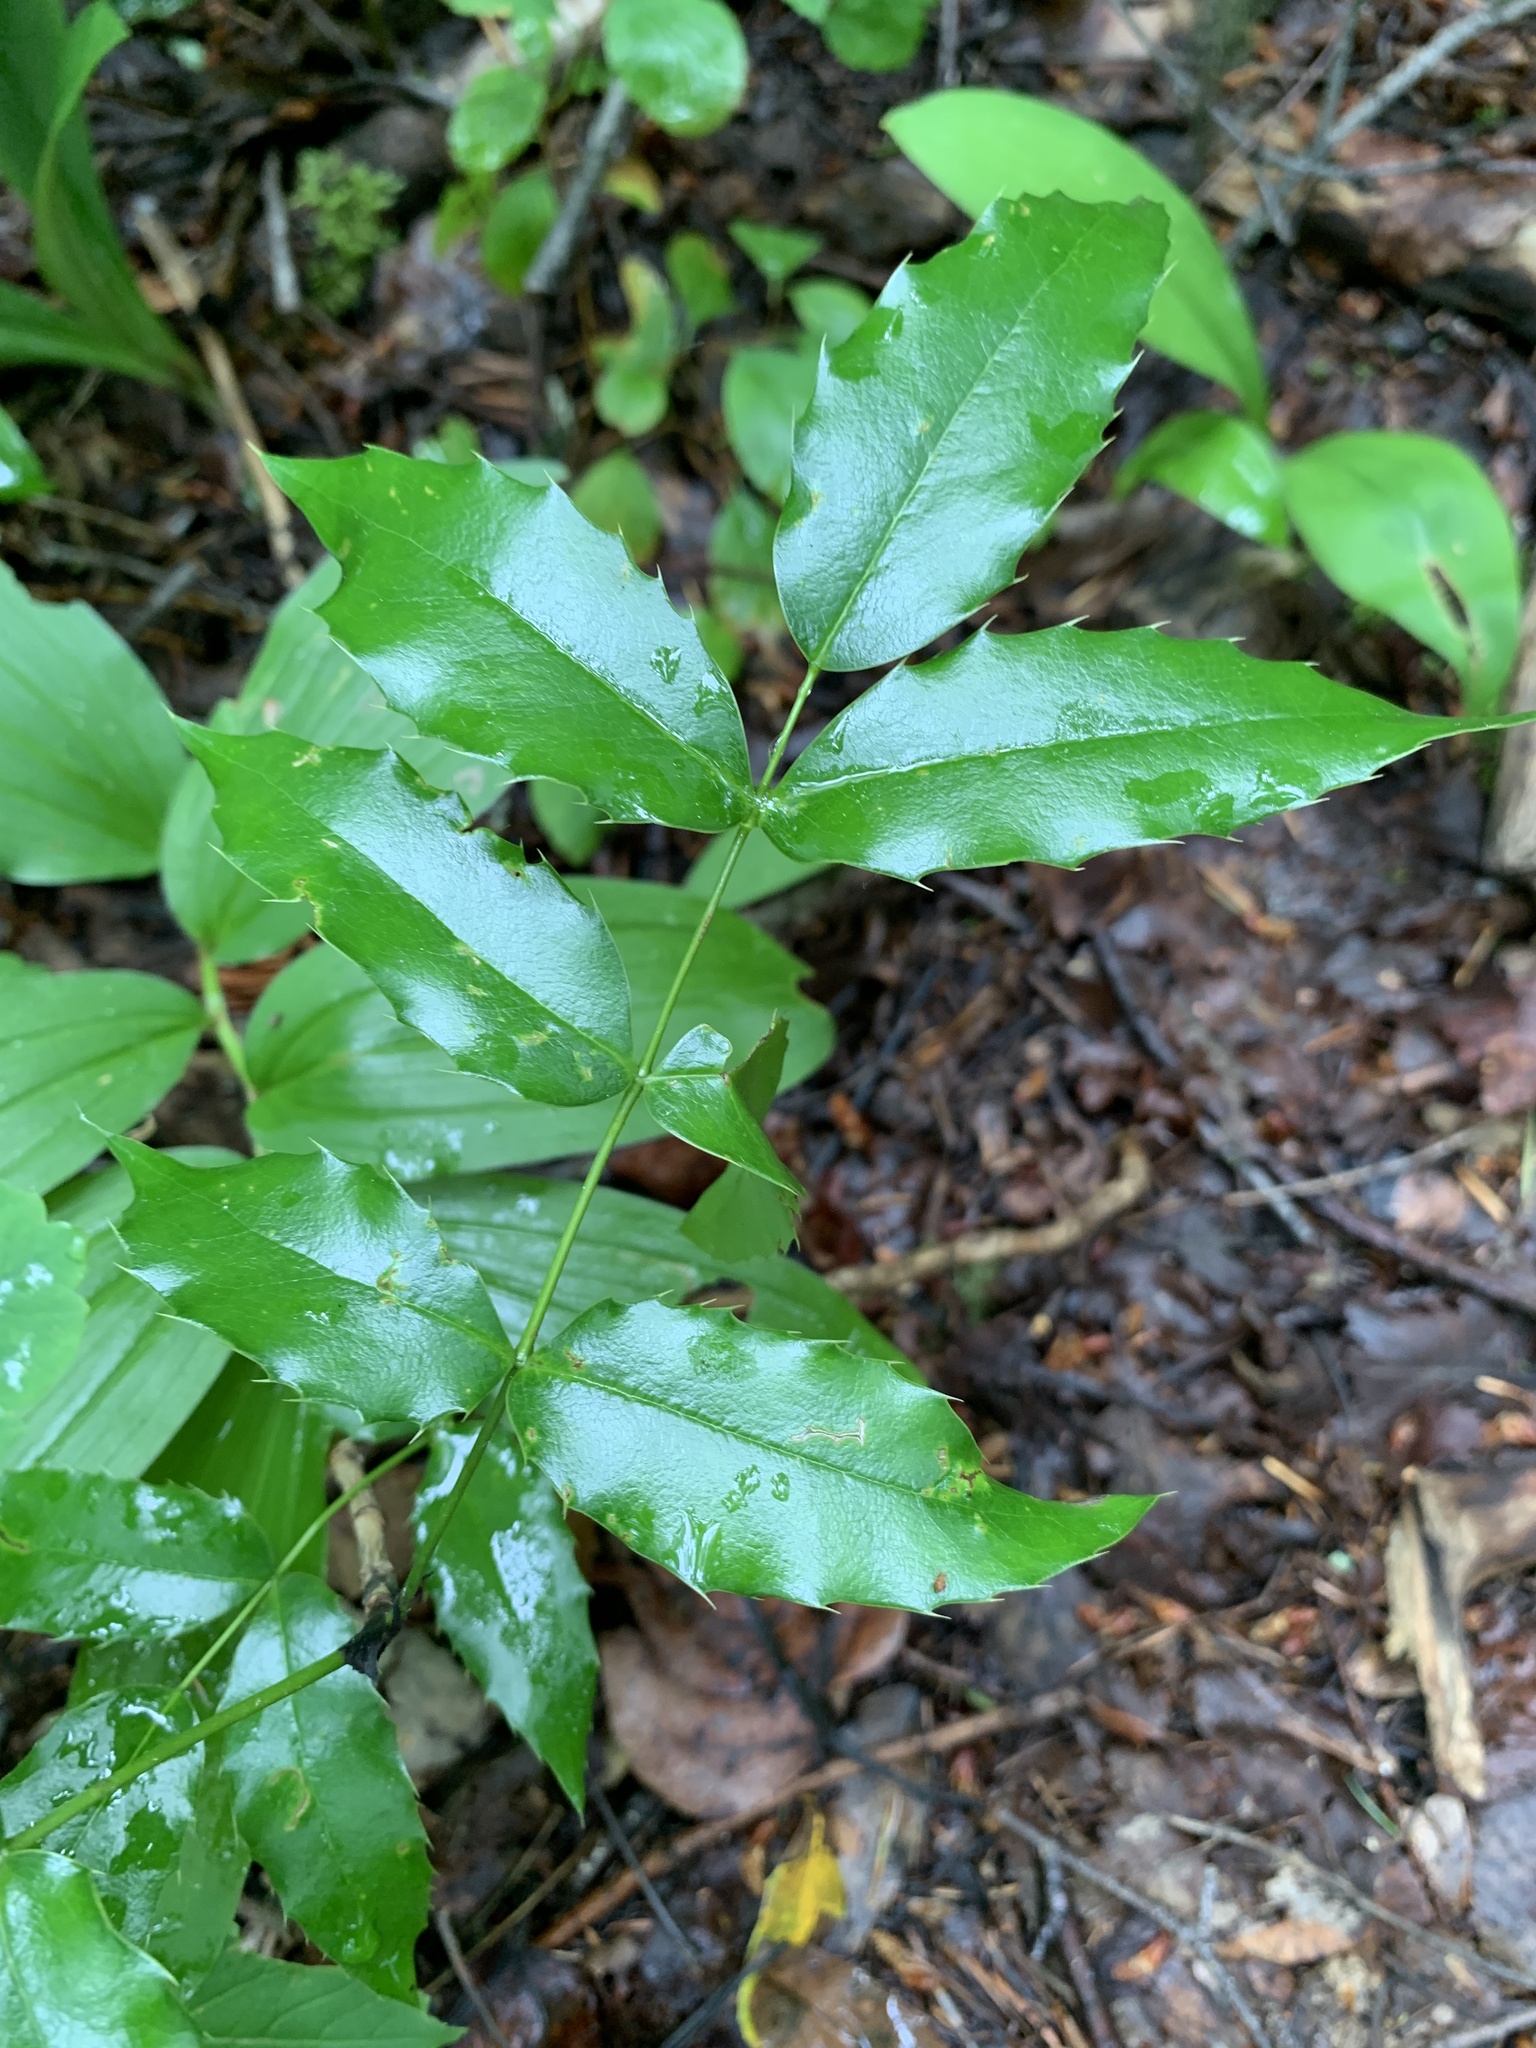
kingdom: Plantae
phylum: Tracheophyta
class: Magnoliopsida
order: Ranunculales
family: Berberidaceae
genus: Mahonia
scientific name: Mahonia aquifolium
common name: Oregon-grape
